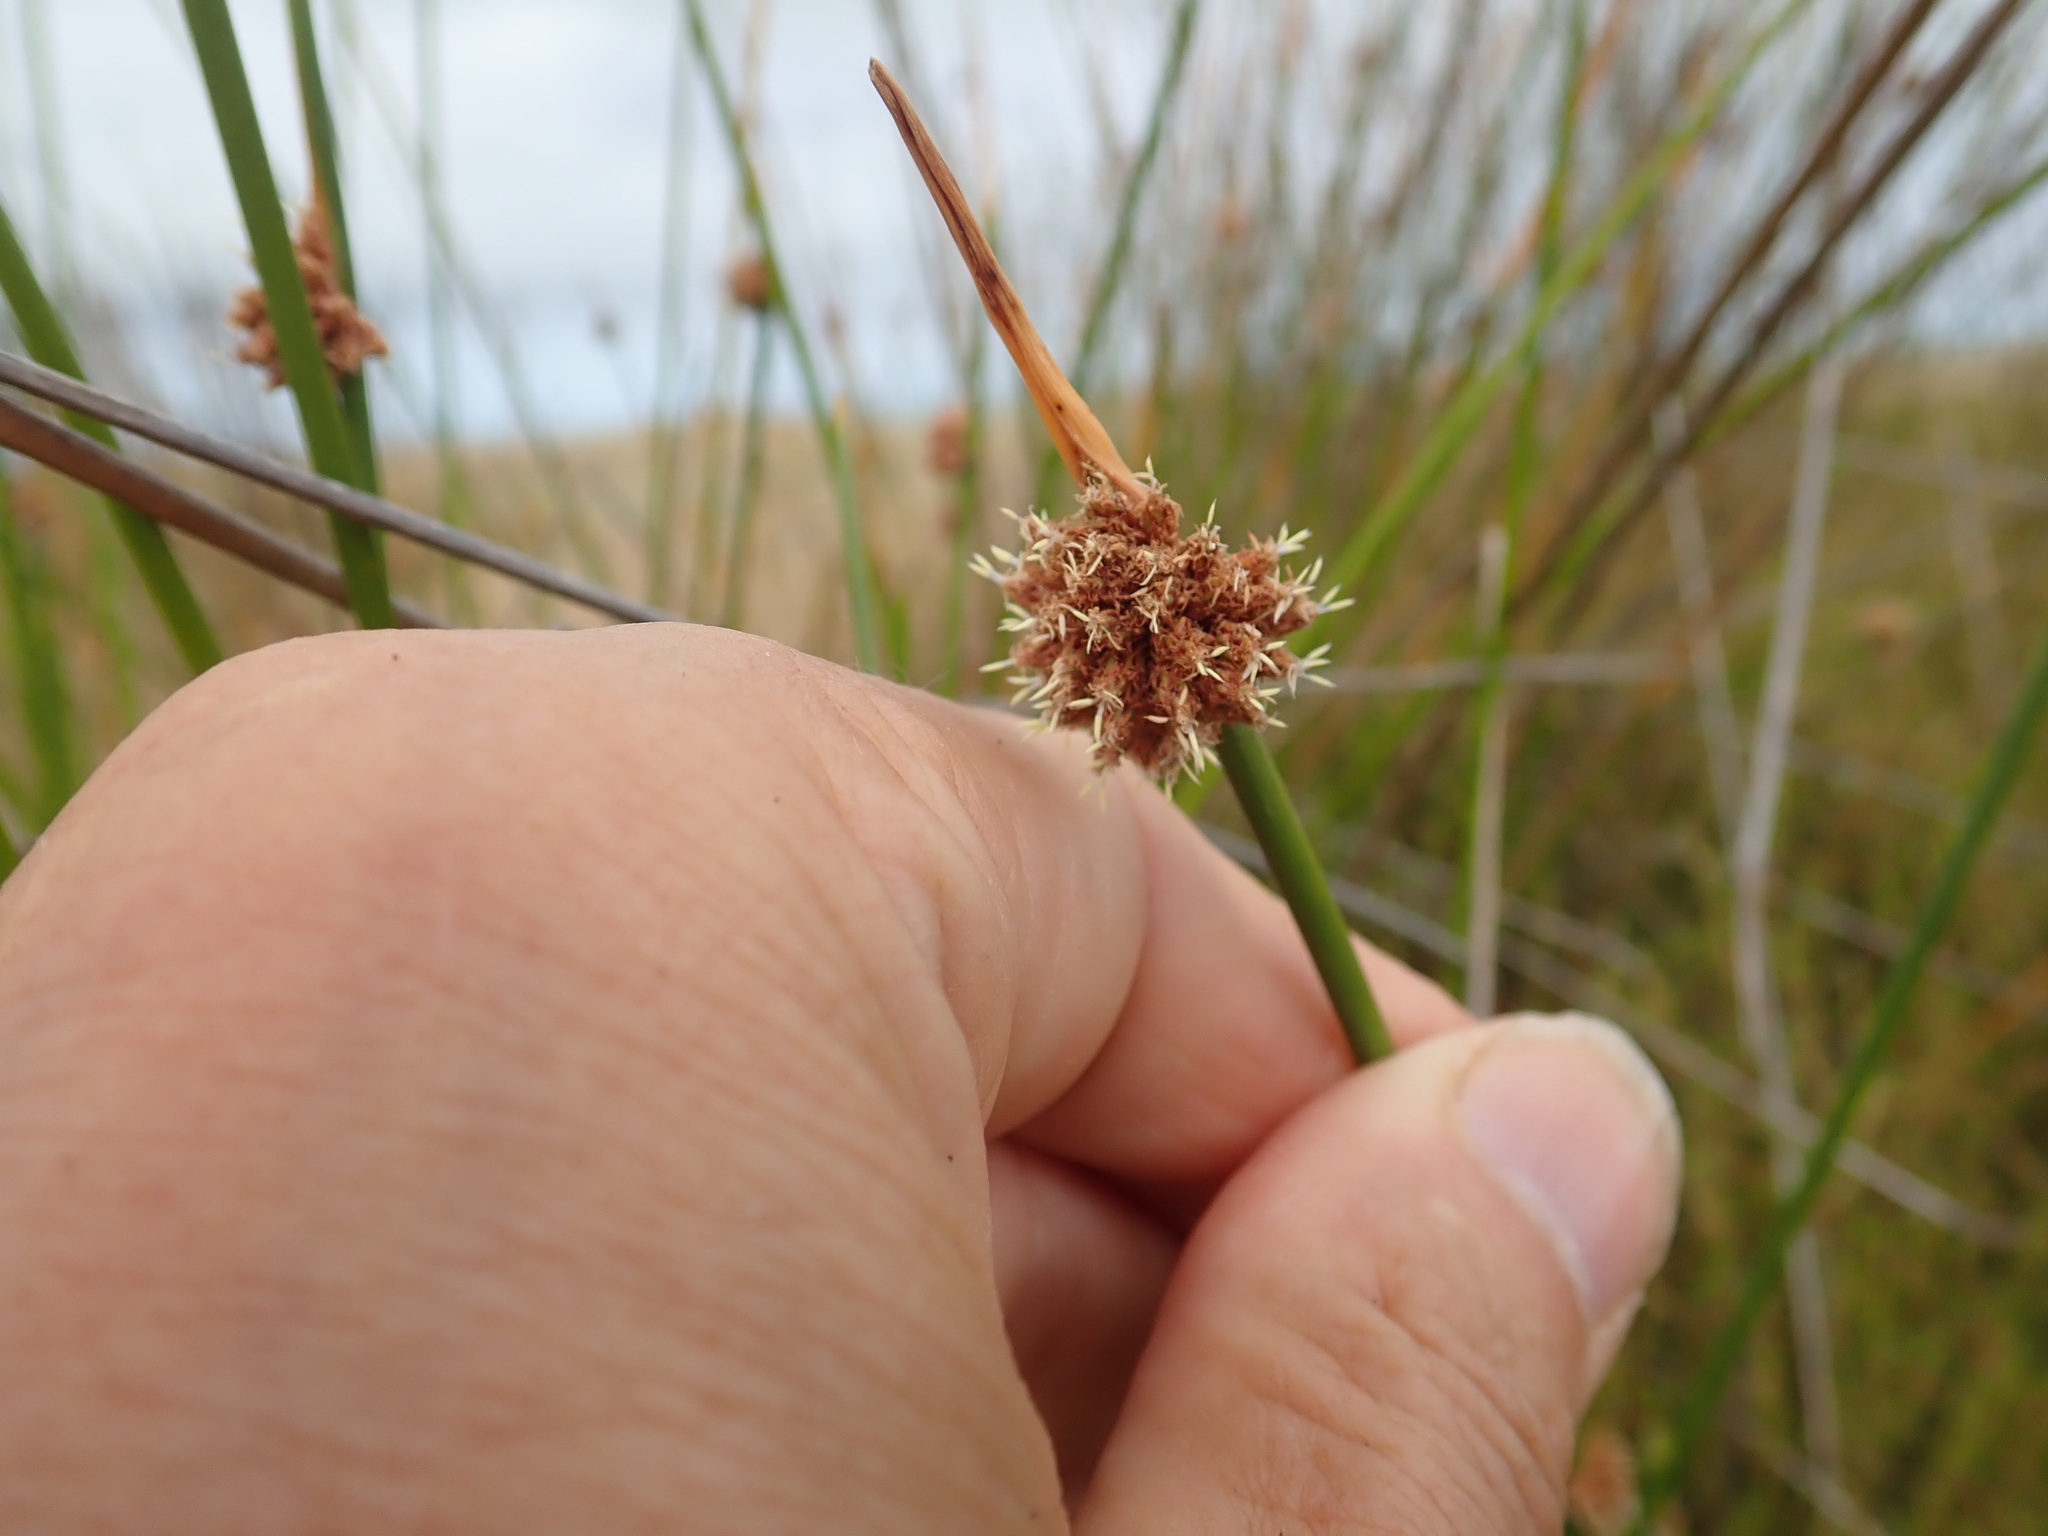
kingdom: Plantae
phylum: Tracheophyta
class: Liliopsida
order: Poales
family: Cyperaceae
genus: Ficinia
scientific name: Ficinia nodosa
